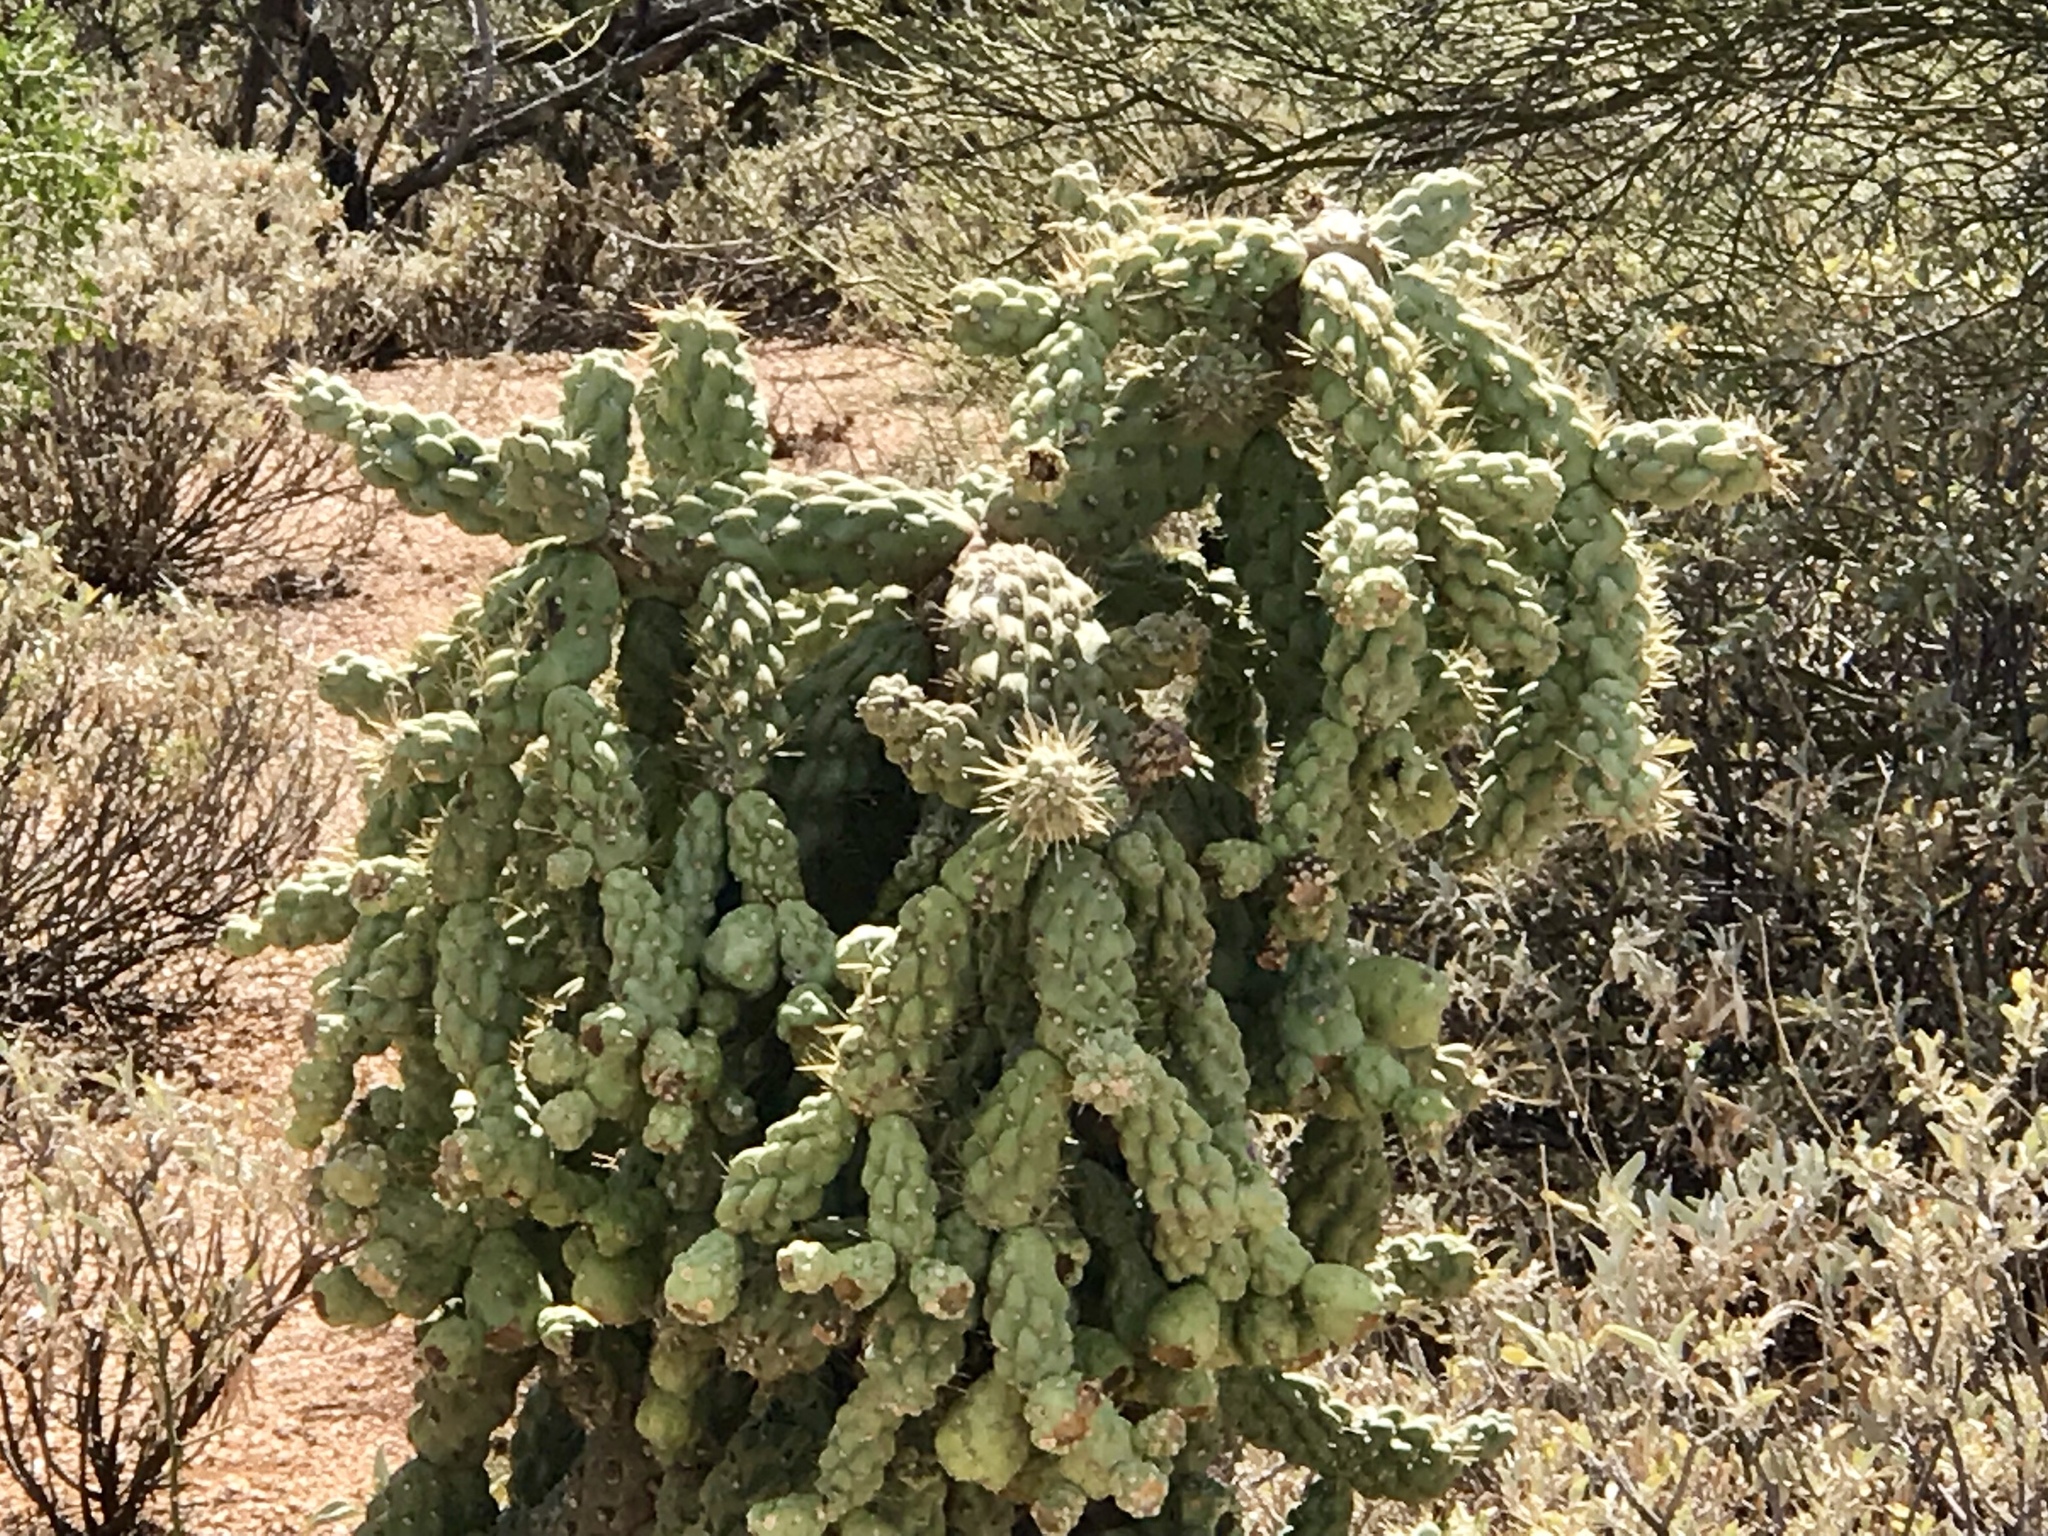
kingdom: Plantae
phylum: Tracheophyta
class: Magnoliopsida
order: Caryophyllales
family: Cactaceae
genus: Cylindropuntia
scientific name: Cylindropuntia fulgida
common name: Jumping cholla
